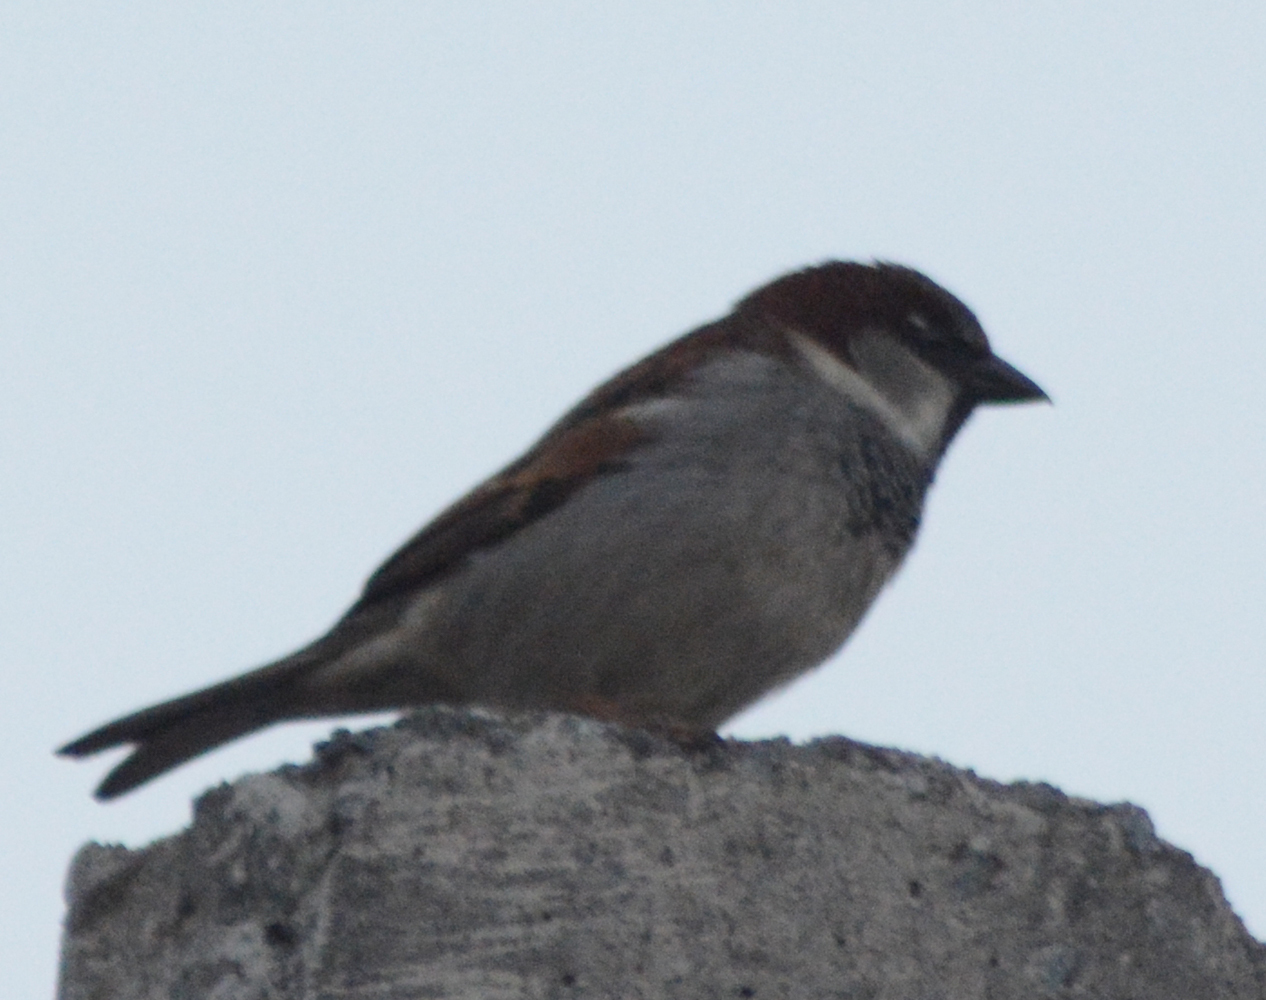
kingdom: Animalia
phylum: Chordata
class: Aves
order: Passeriformes
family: Passeridae
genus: Passer
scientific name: Passer domesticus
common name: House sparrow
